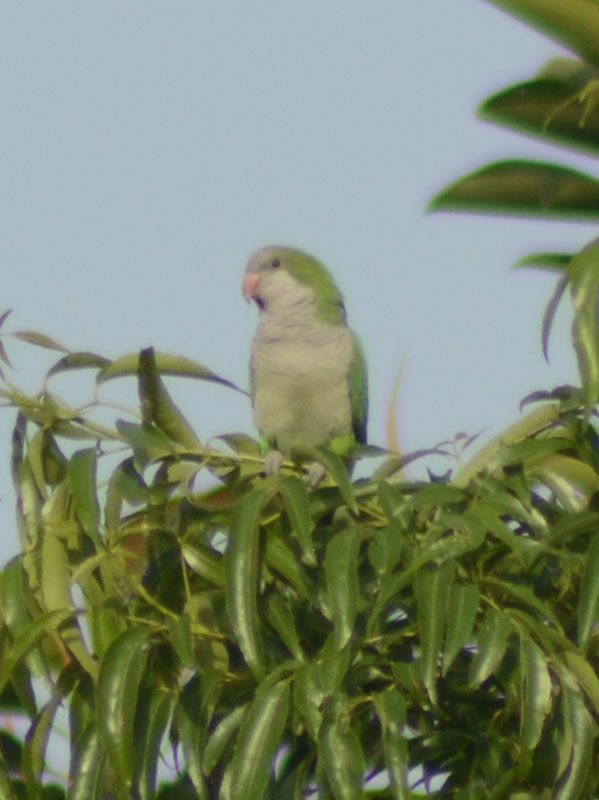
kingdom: Animalia
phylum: Chordata
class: Aves
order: Psittaciformes
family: Psittacidae
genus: Myiopsitta
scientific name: Myiopsitta monachus
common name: Monk parakeet
